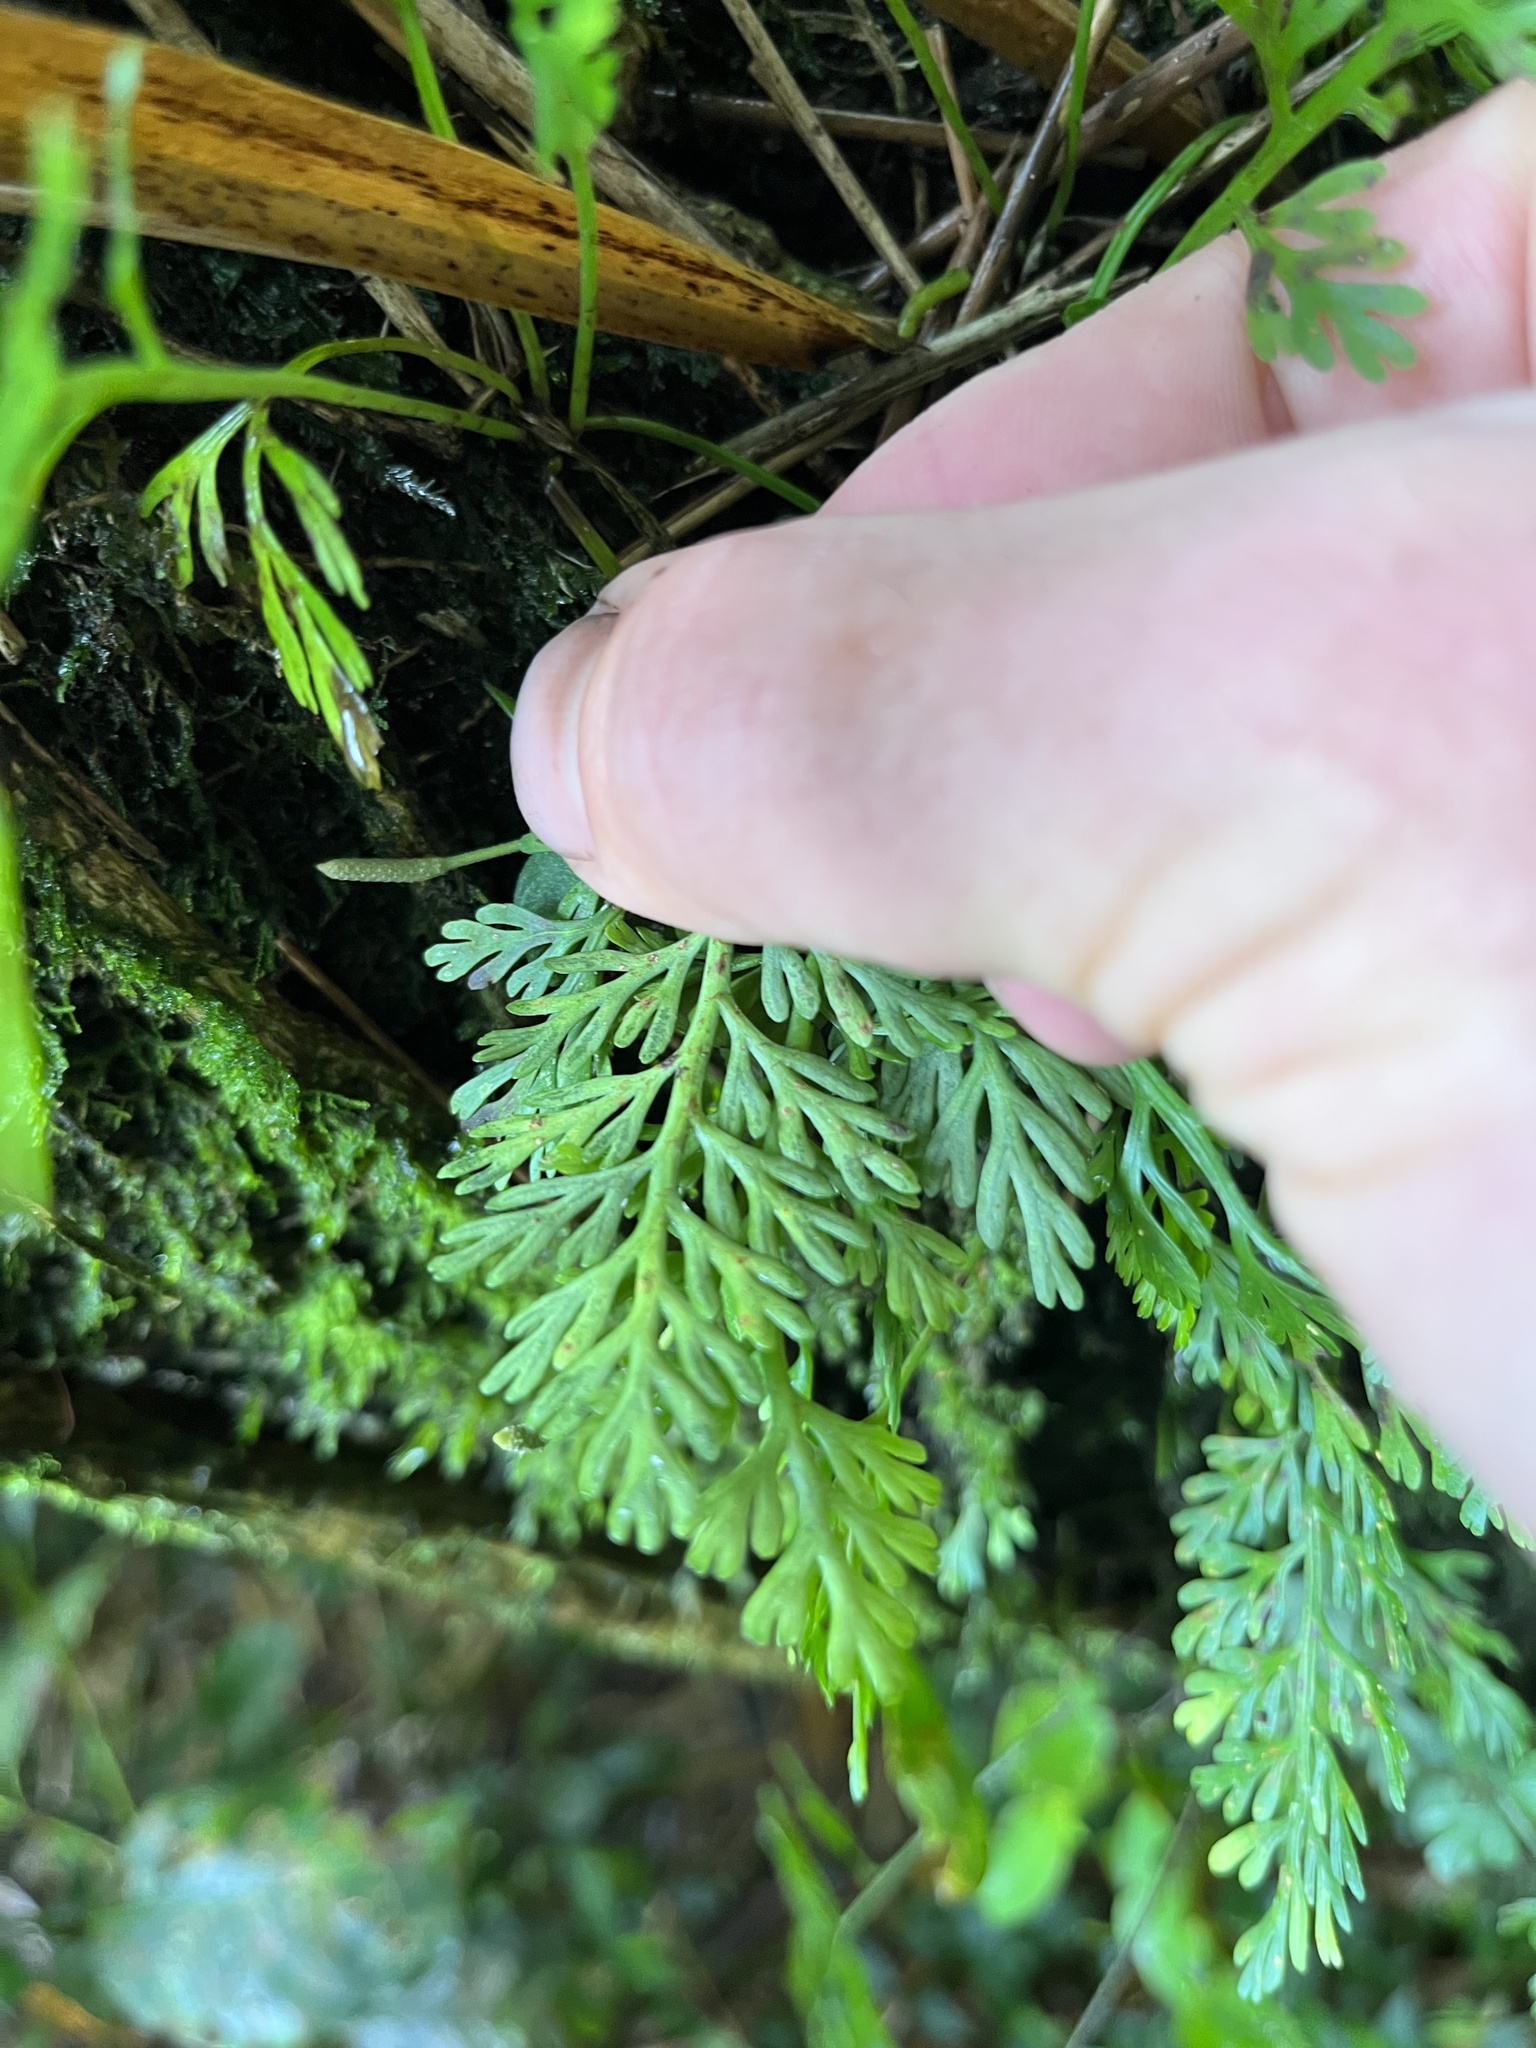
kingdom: Plantae
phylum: Tracheophyta
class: Polypodiopsida
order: Polypodiales
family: Aspleniaceae
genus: Asplenium
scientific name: Asplenium theciferum
